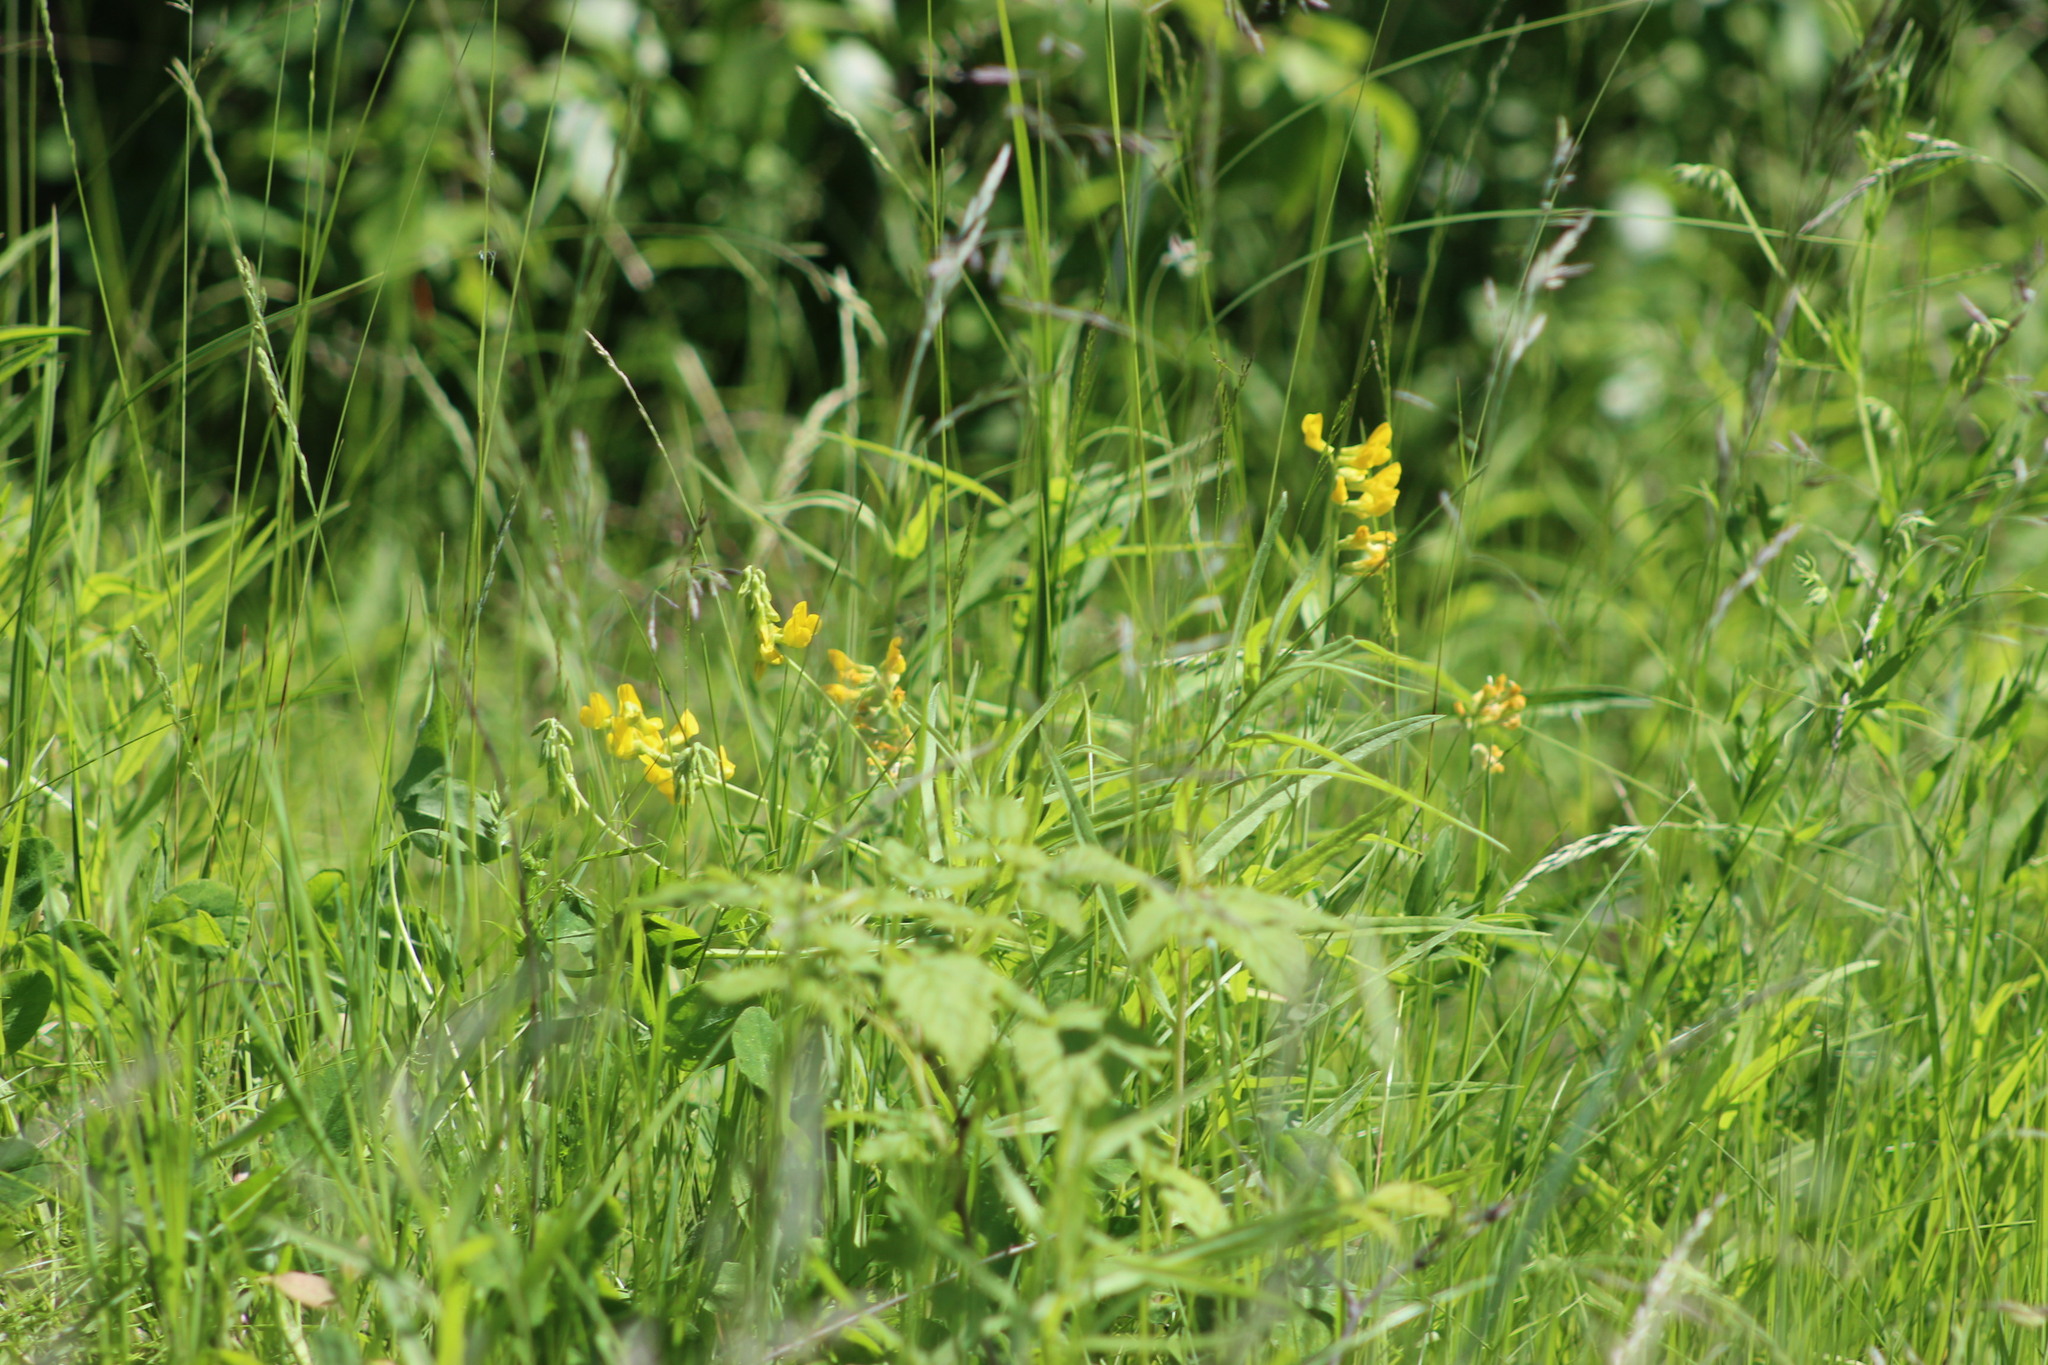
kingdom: Plantae
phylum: Tracheophyta
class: Magnoliopsida
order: Fabales
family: Fabaceae
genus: Lathyrus
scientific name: Lathyrus pratensis
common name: Meadow vetchling
